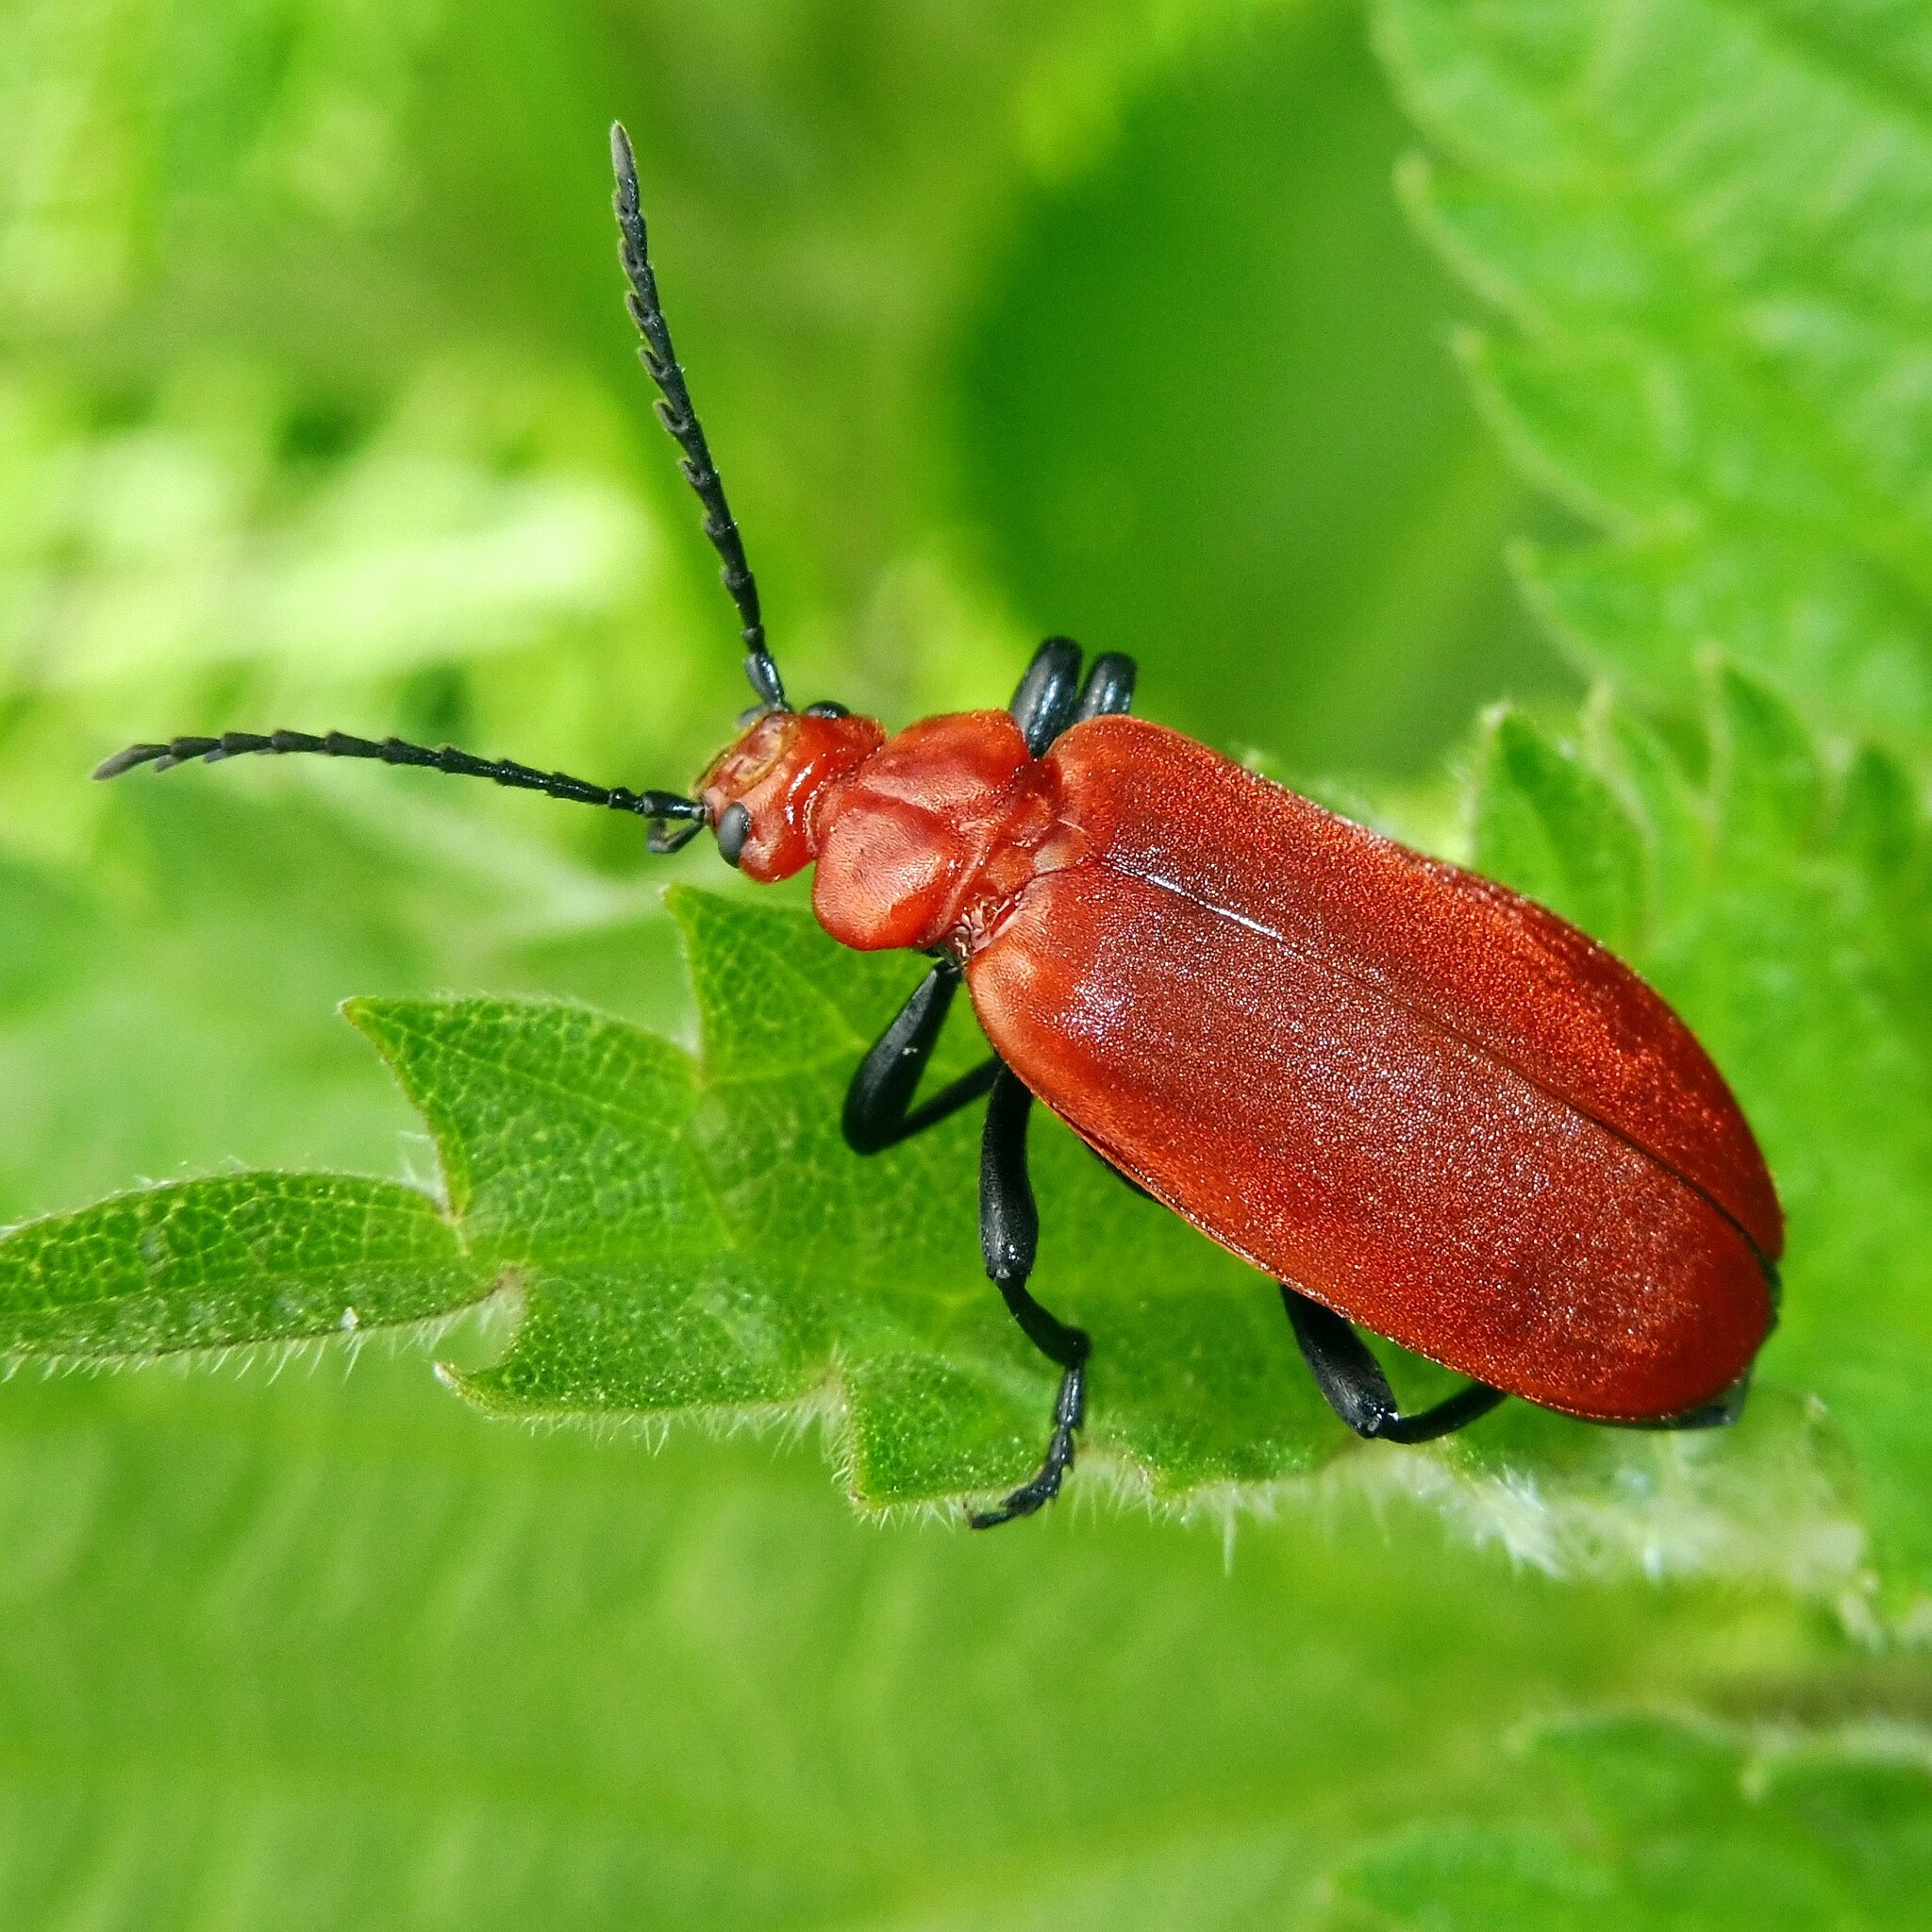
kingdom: Animalia
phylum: Arthropoda
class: Insecta
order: Coleoptera
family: Pyrochroidae
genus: Pyrochroa
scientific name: Pyrochroa serraticornis
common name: Red-headed cardinal beetle
